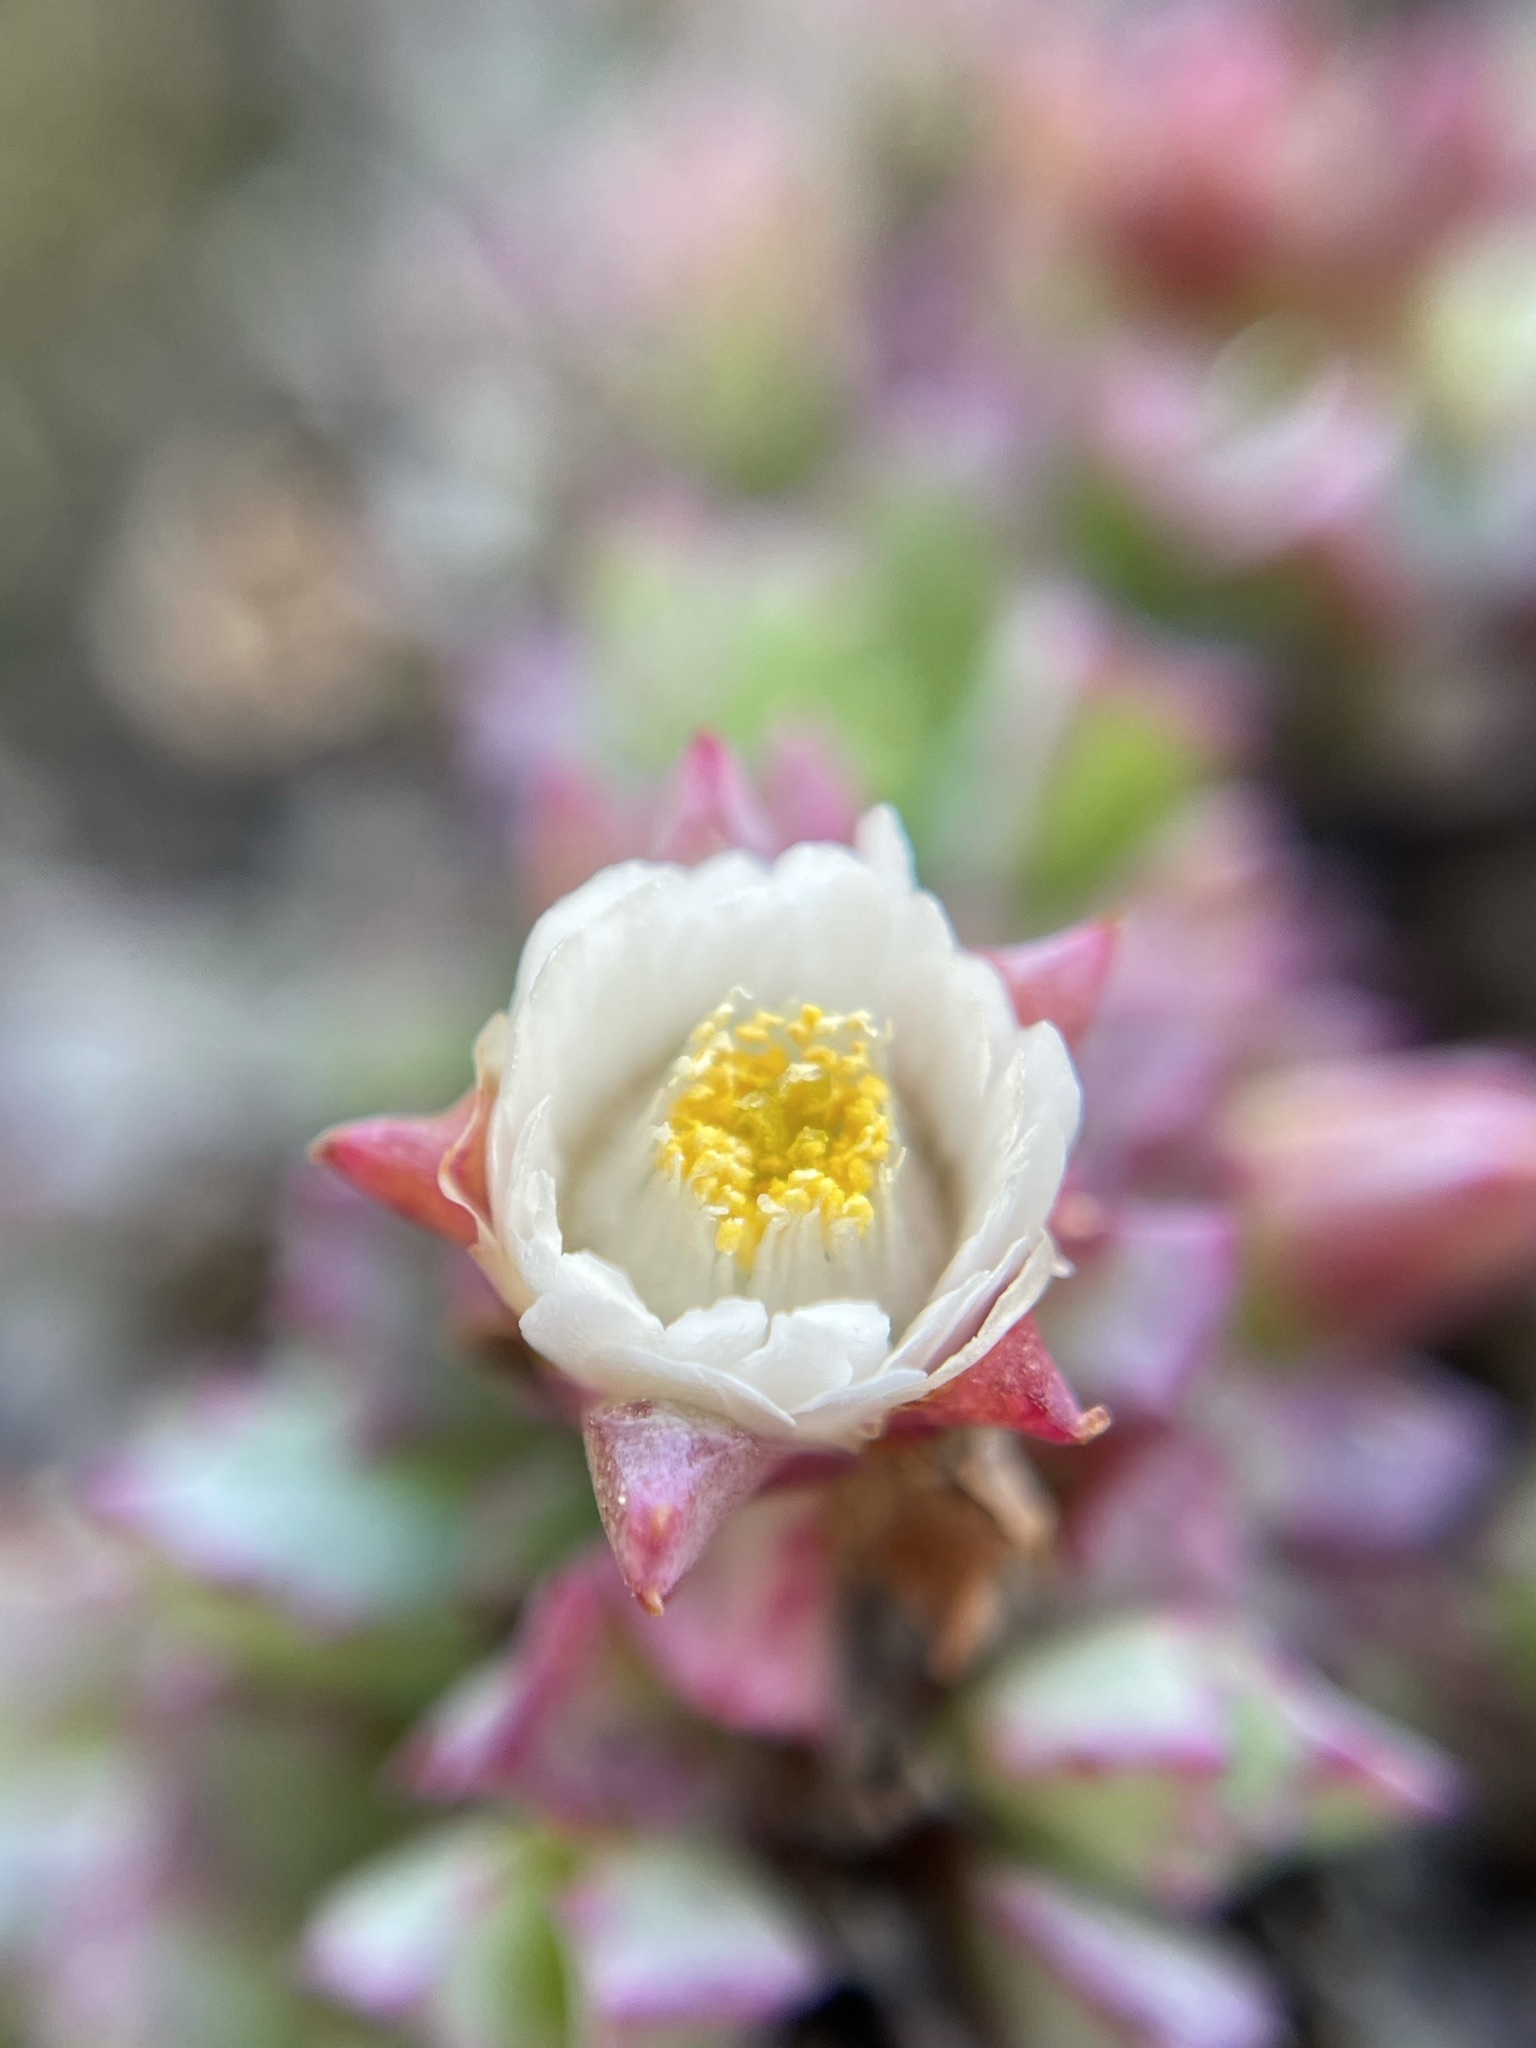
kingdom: Plantae
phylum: Tracheophyta
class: Magnoliopsida
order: Caryophyllales
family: Aizoaceae
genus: Oscularia
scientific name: Oscularia deltoides
